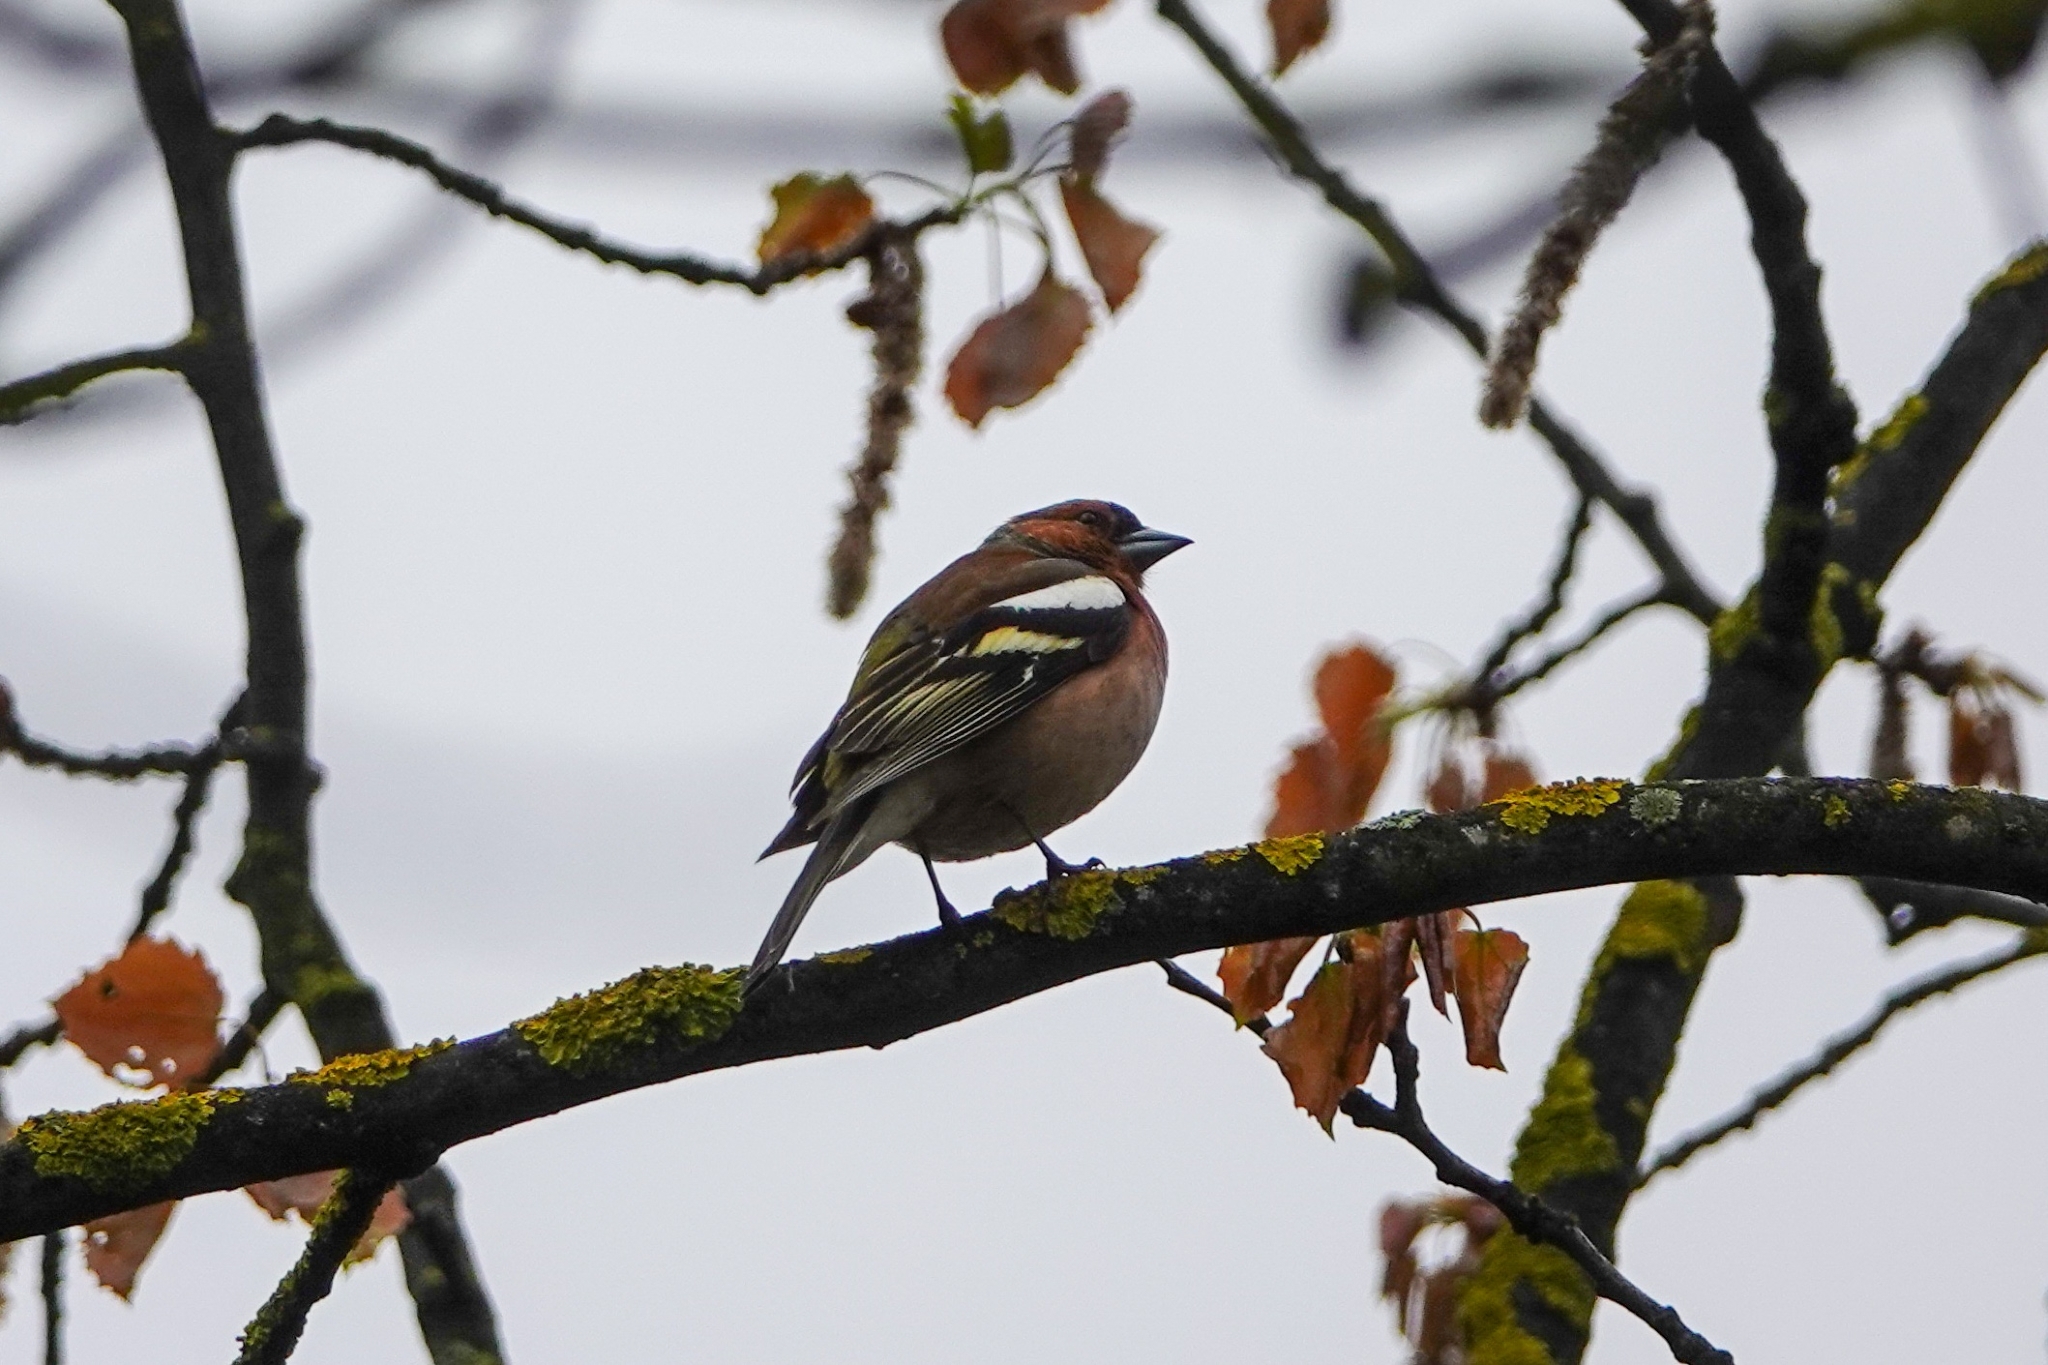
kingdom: Animalia
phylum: Chordata
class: Aves
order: Passeriformes
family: Fringillidae
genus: Fringilla
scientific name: Fringilla coelebs
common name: Common chaffinch
